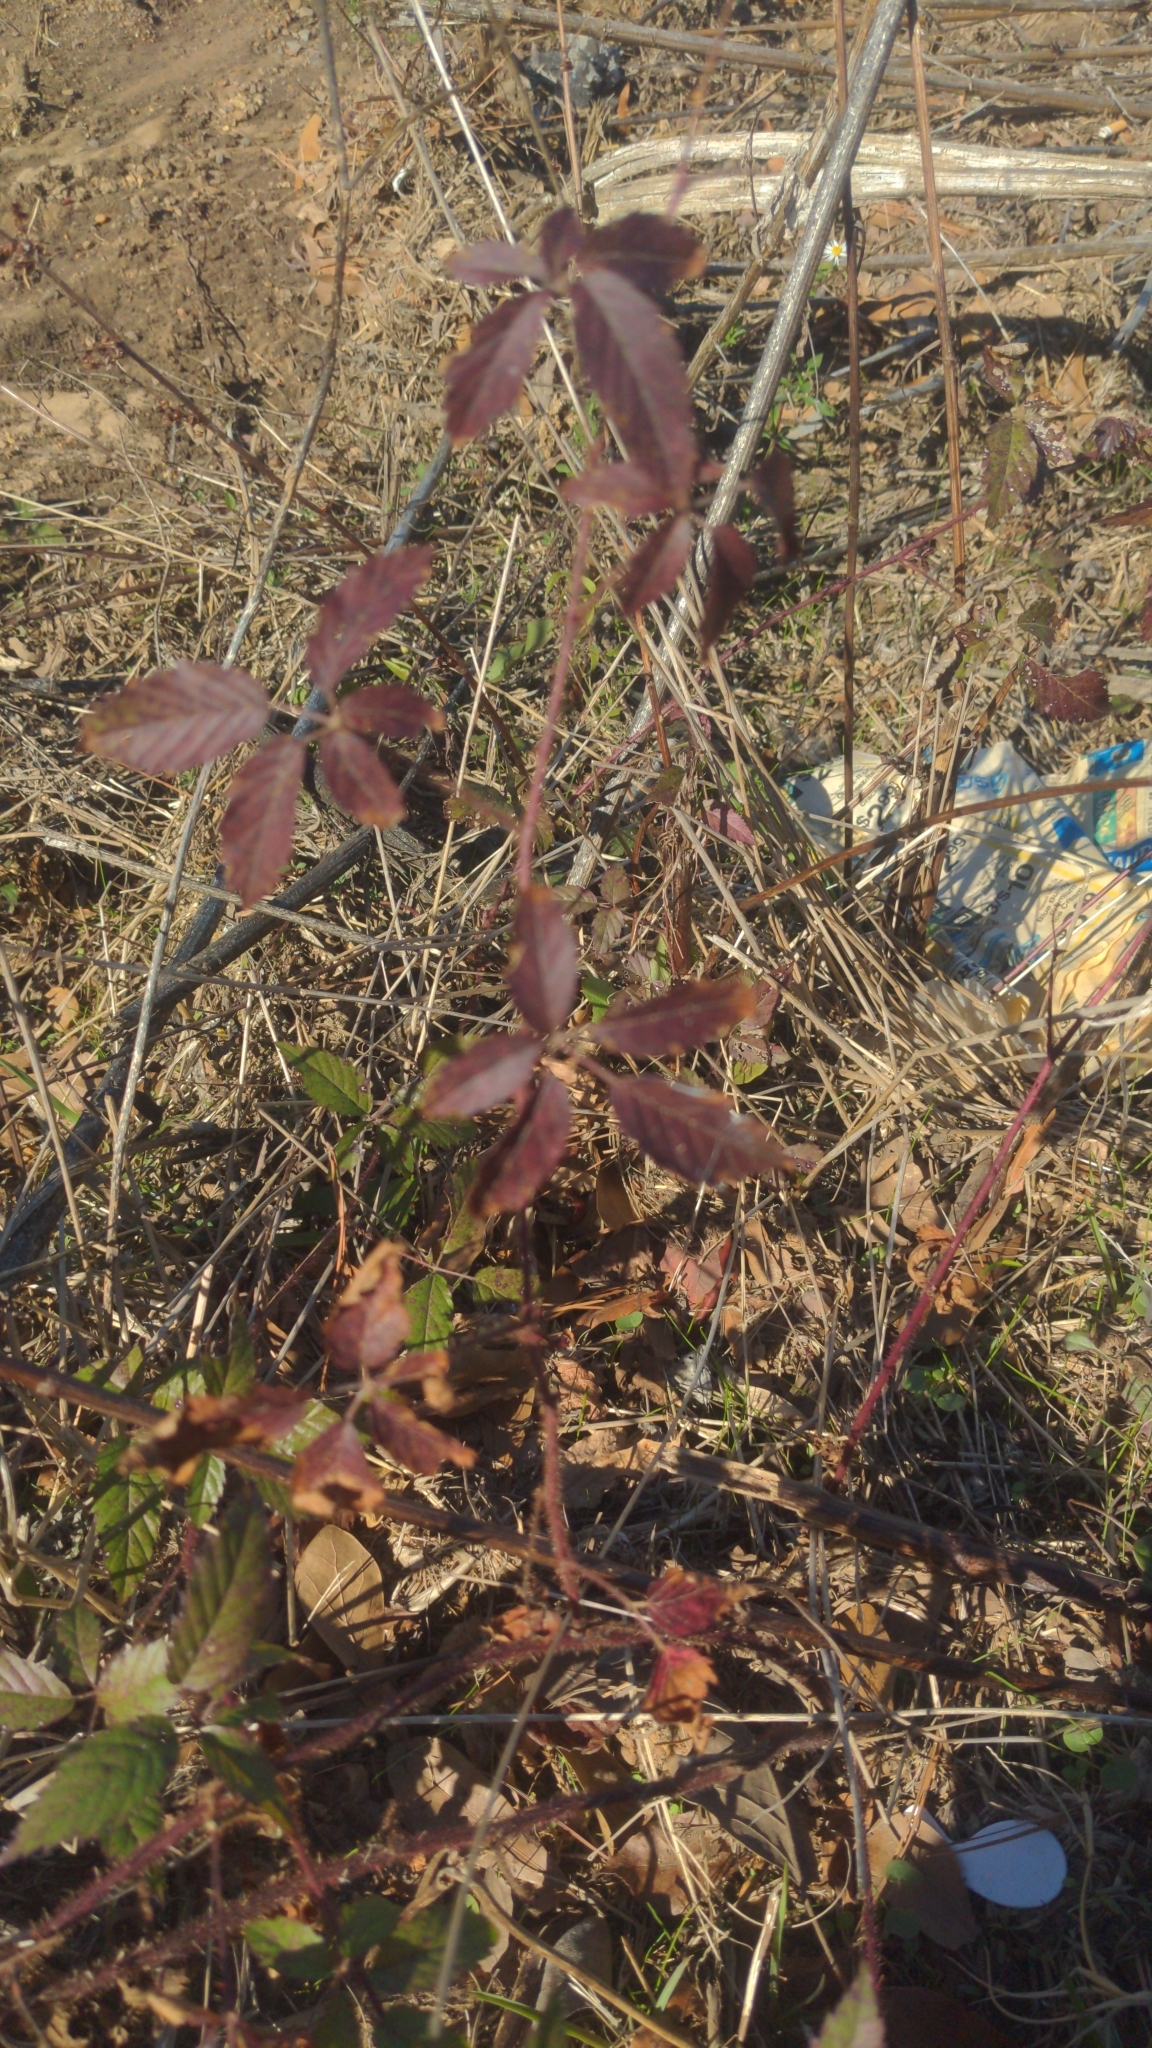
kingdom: Plantae
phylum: Tracheophyta
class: Magnoliopsida
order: Rosales
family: Rosaceae
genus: Rubus
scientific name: Rubus trivialis
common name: Southern dewberry
